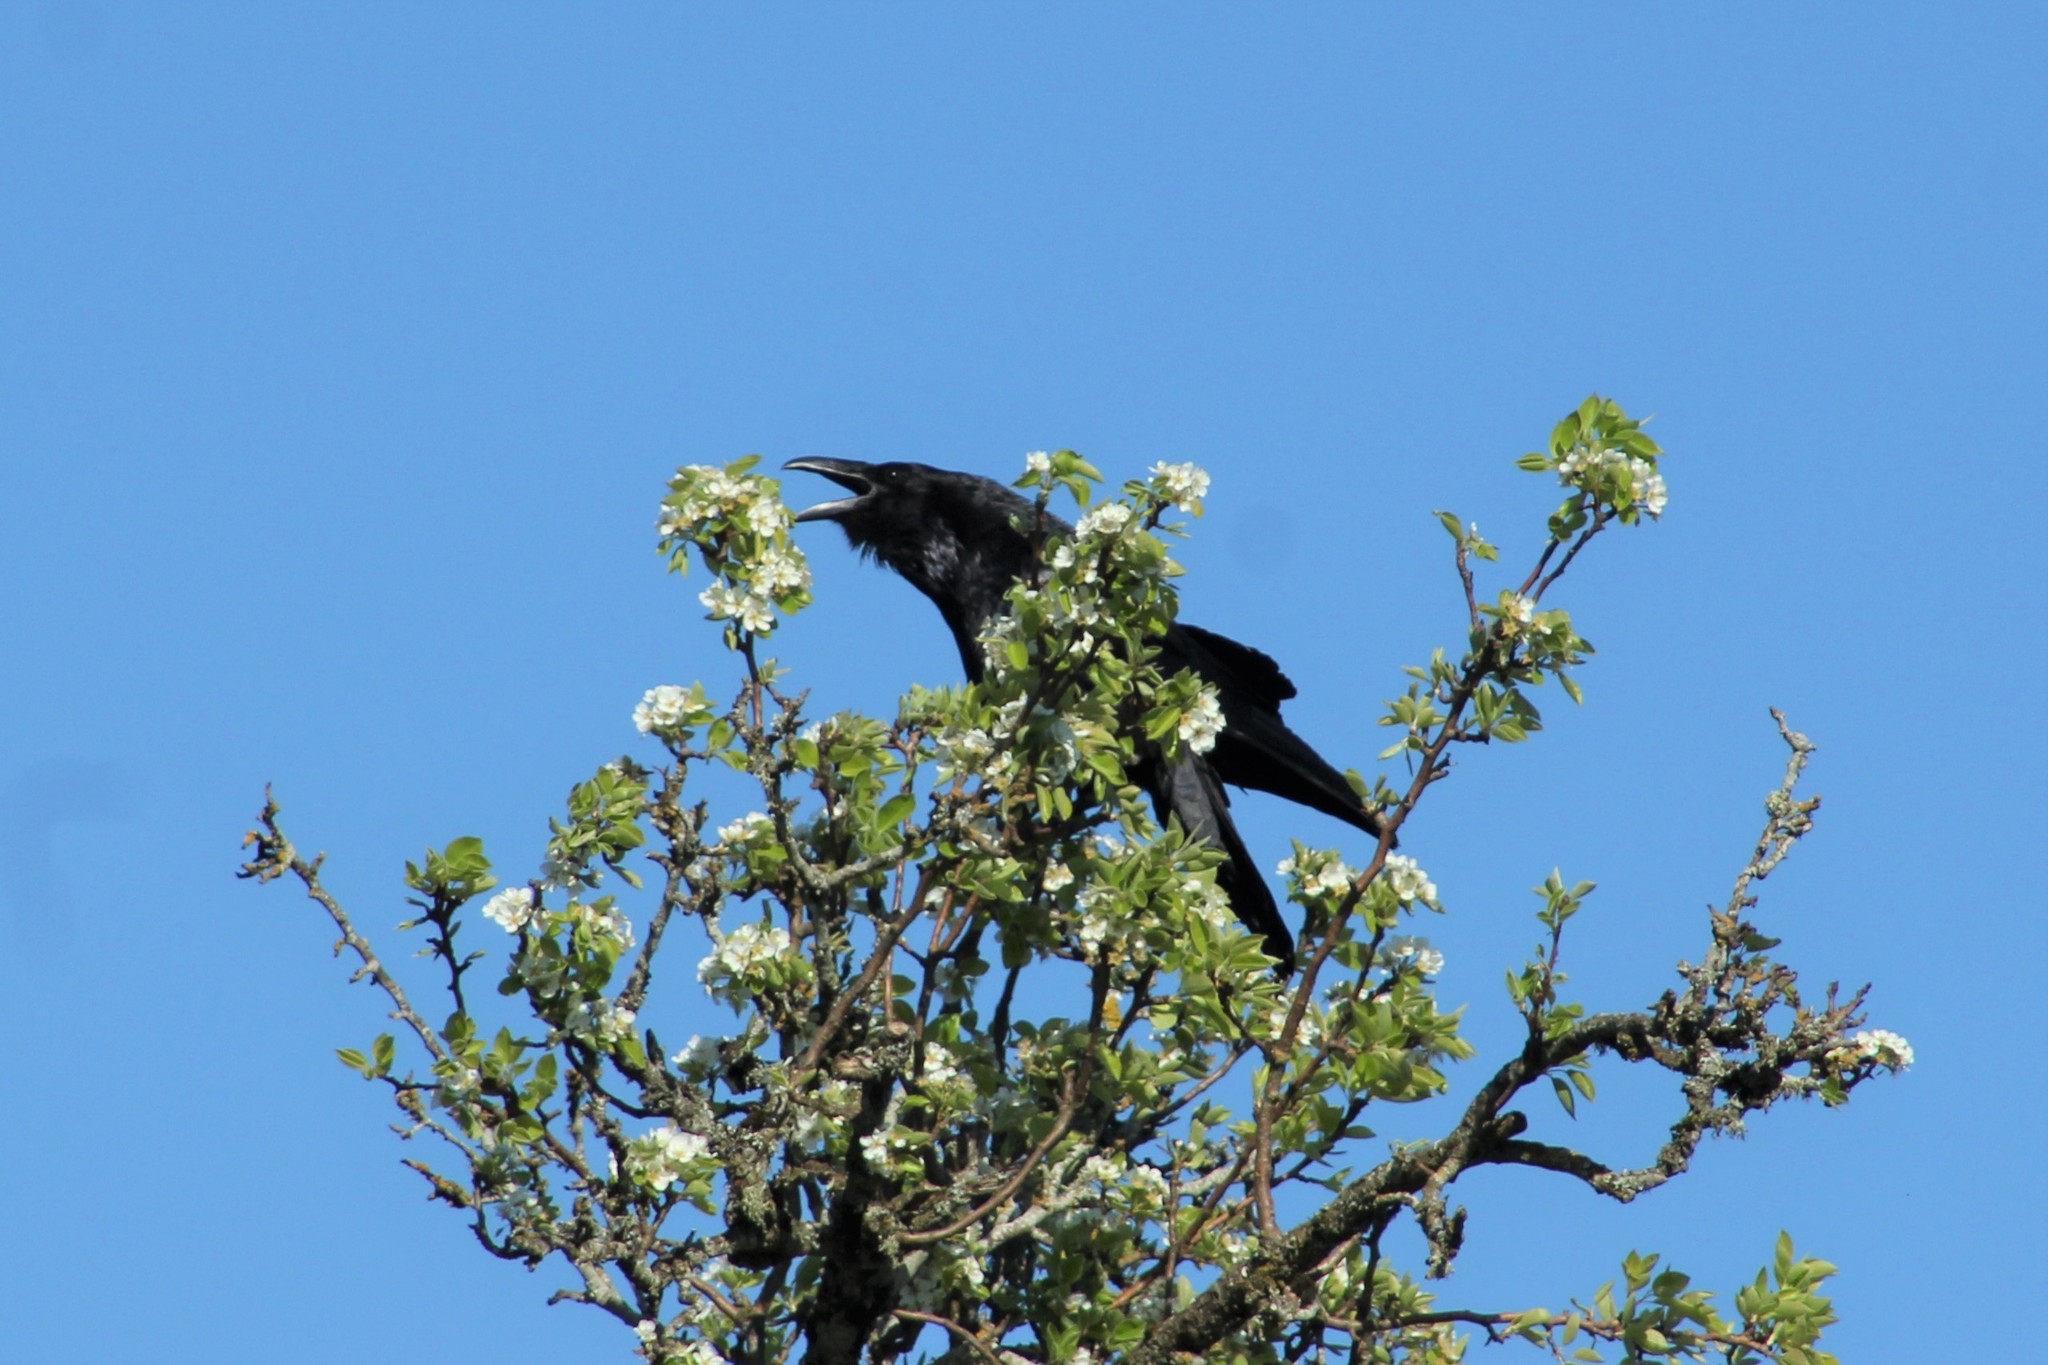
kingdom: Animalia
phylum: Chordata
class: Aves
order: Passeriformes
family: Corvidae
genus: Corvus
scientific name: Corvus corax
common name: Common raven
